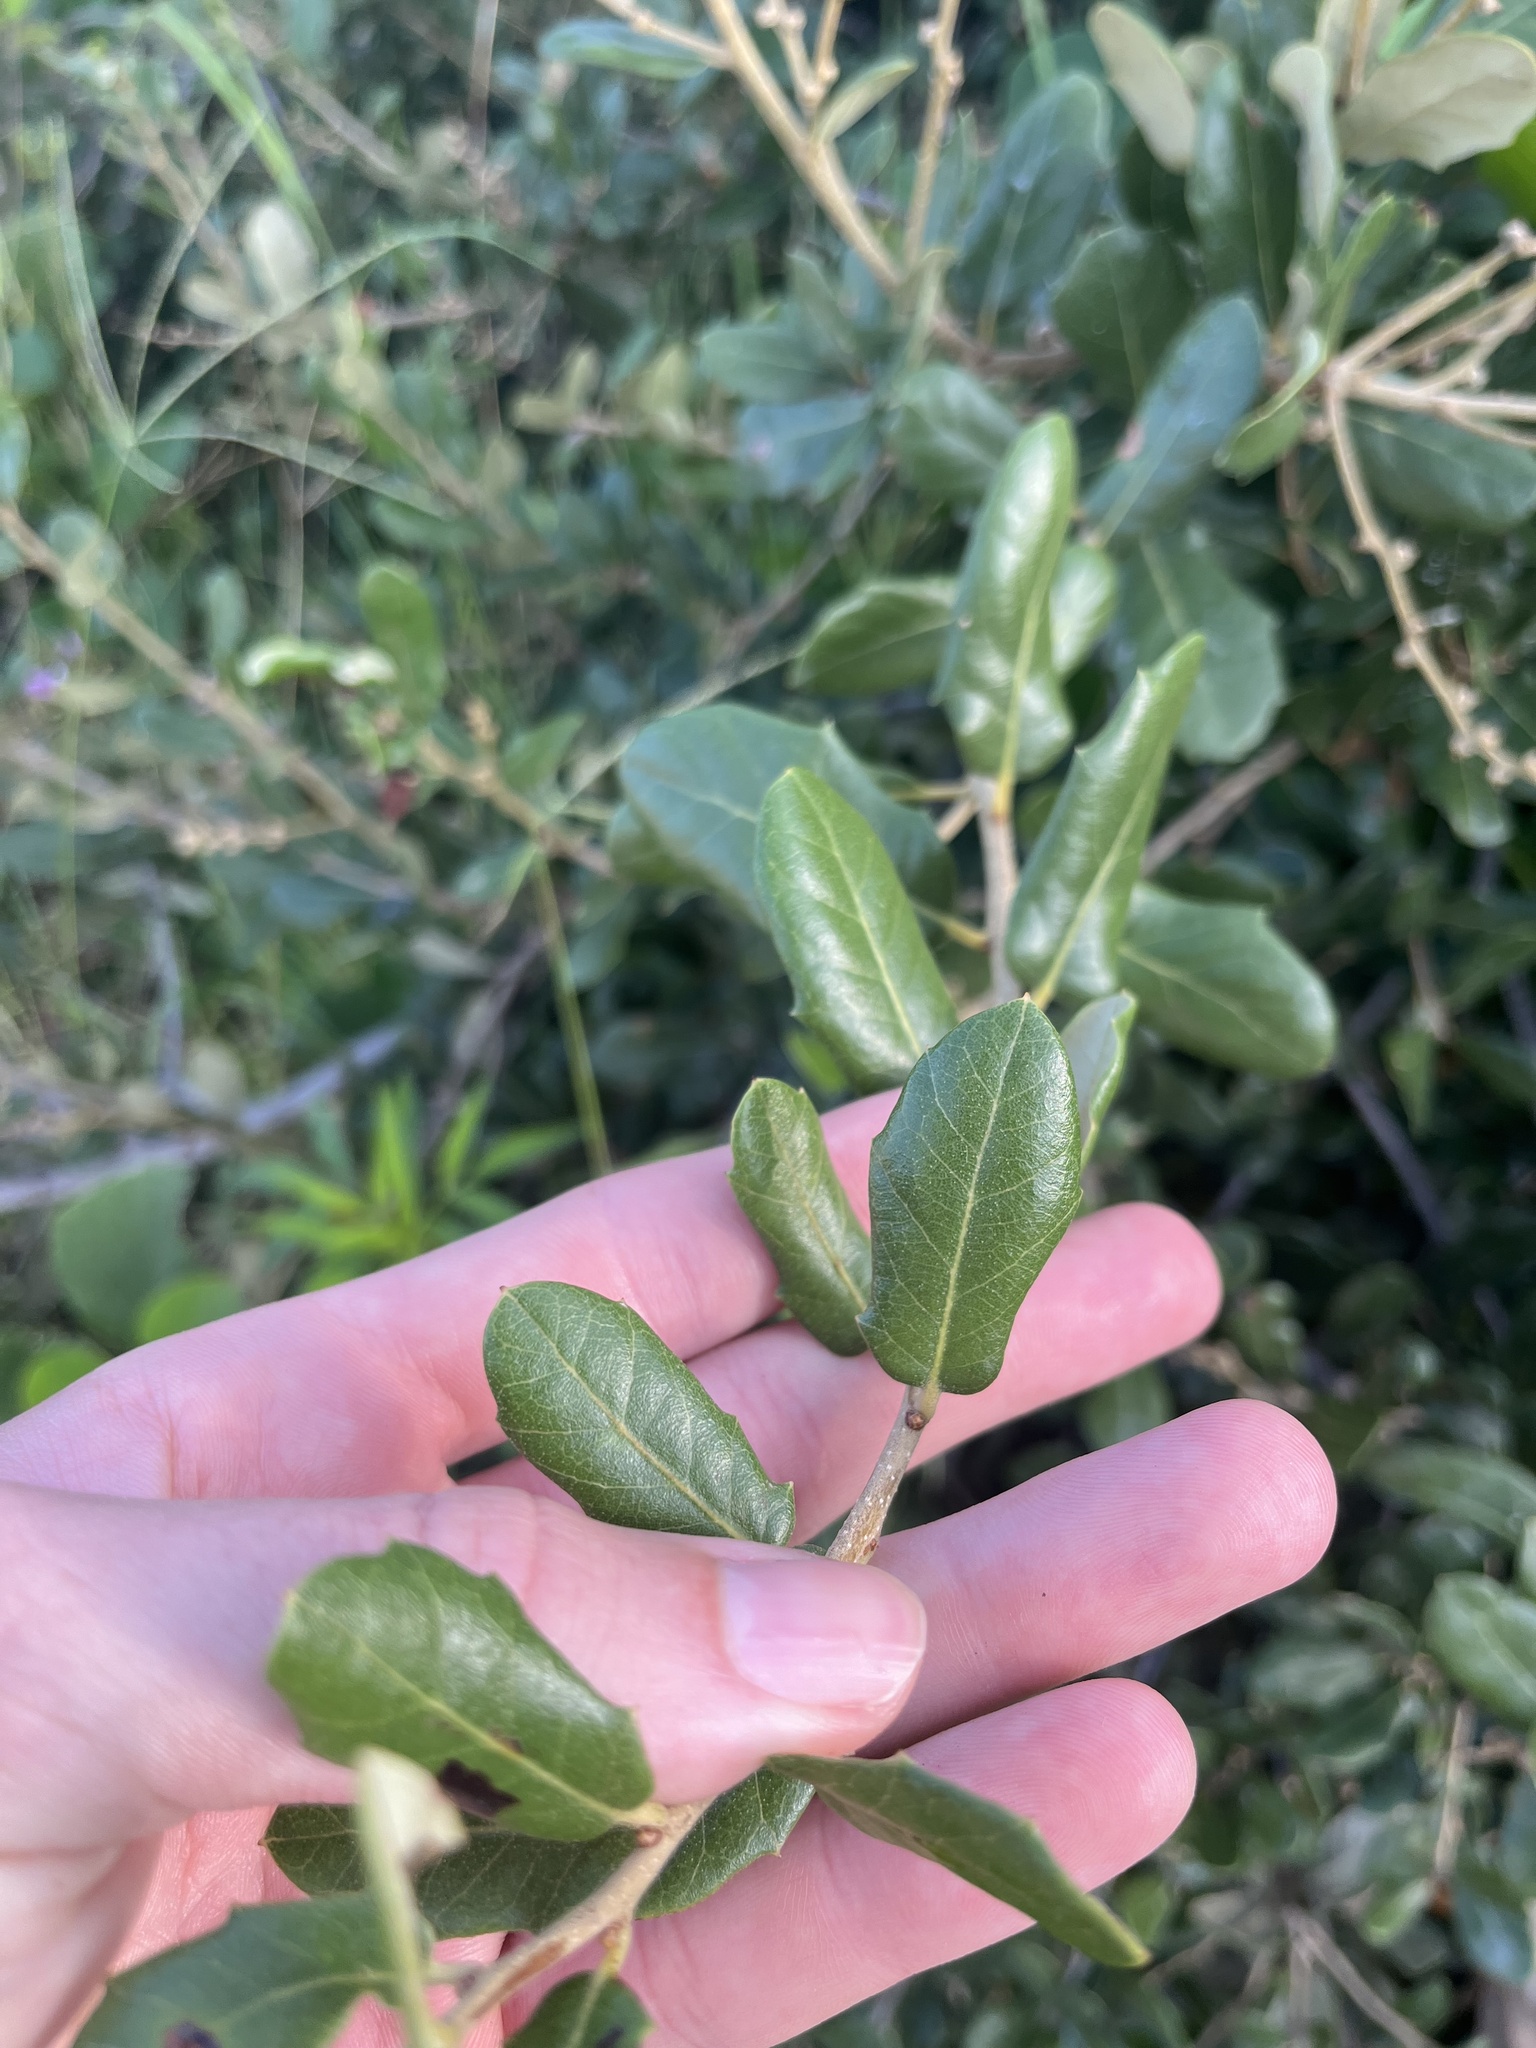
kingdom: Plantae
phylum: Tracheophyta
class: Magnoliopsida
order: Fagales
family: Fagaceae
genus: Quercus
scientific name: Quercus virginiana
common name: Southern live oak
